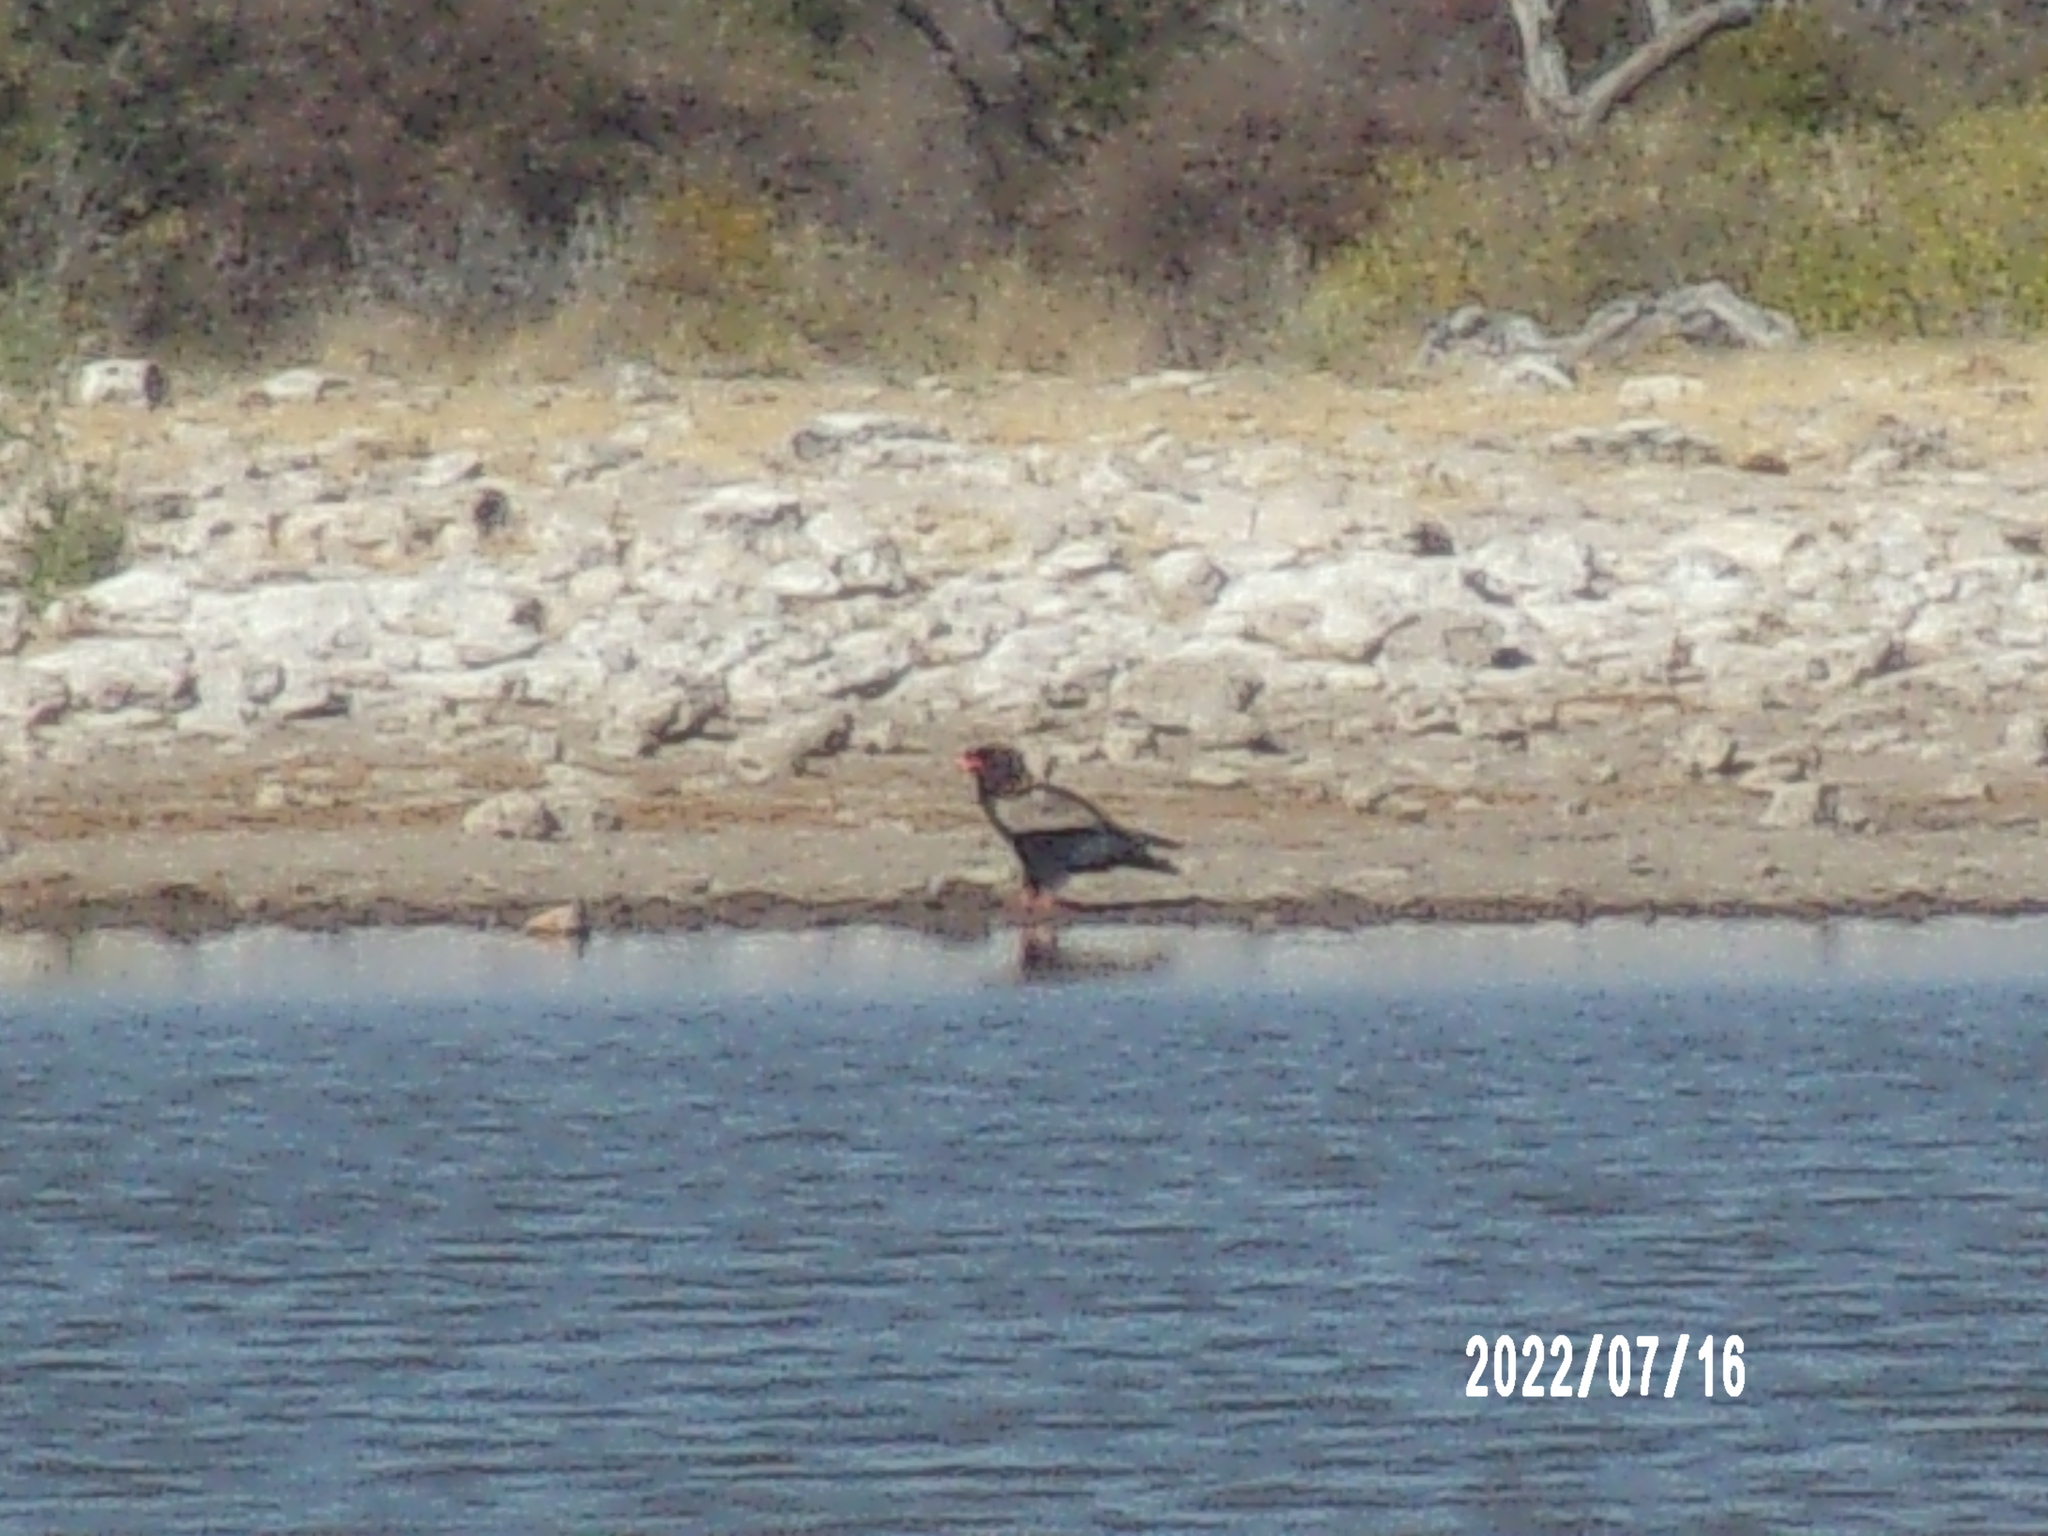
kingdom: Animalia
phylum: Chordata
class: Aves
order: Accipitriformes
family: Accipitridae
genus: Terathopius
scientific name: Terathopius ecaudatus
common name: Bateleur
